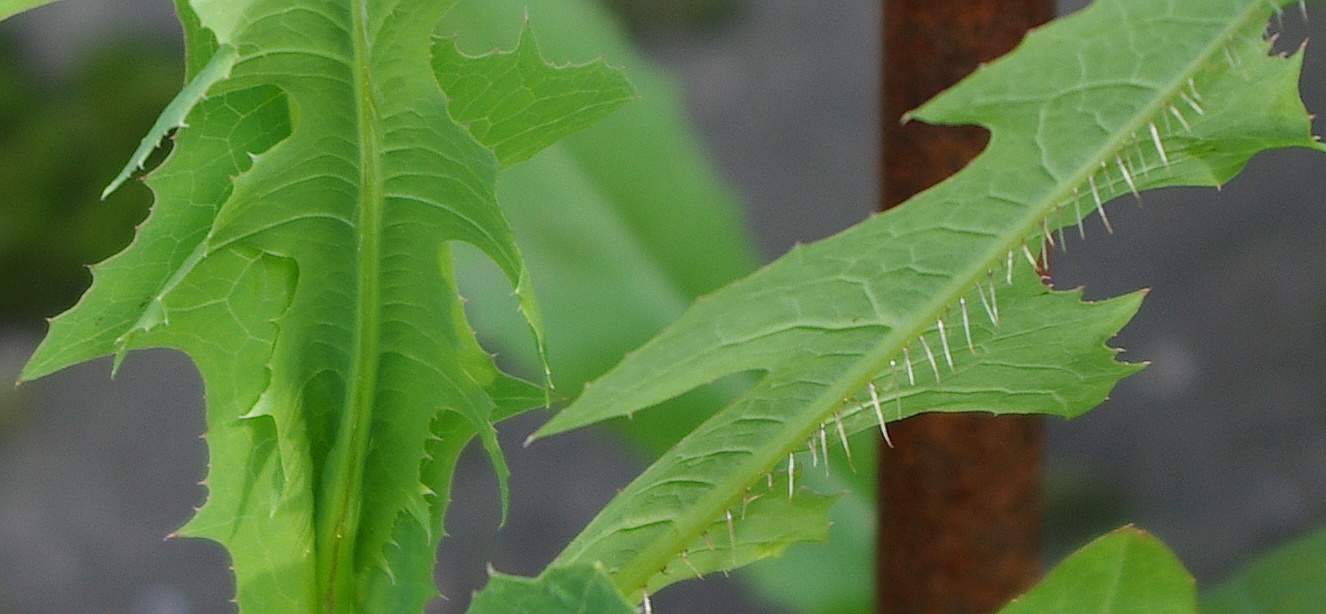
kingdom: Plantae
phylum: Tracheophyta
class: Magnoliopsida
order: Asterales
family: Asteraceae
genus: Lactuca
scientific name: Lactuca serriola
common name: Prickly lettuce
